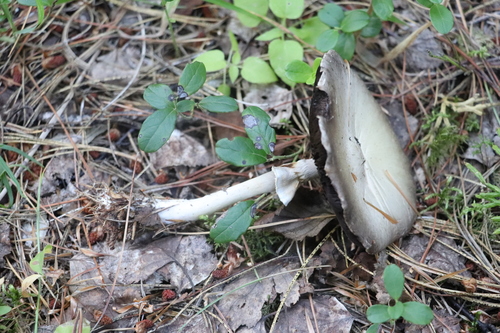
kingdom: Fungi
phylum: Basidiomycota
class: Agaricomycetes
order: Agaricales
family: Agaricaceae
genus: Agaricus
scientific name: Agaricus sylvicola
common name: Wood mushroom
